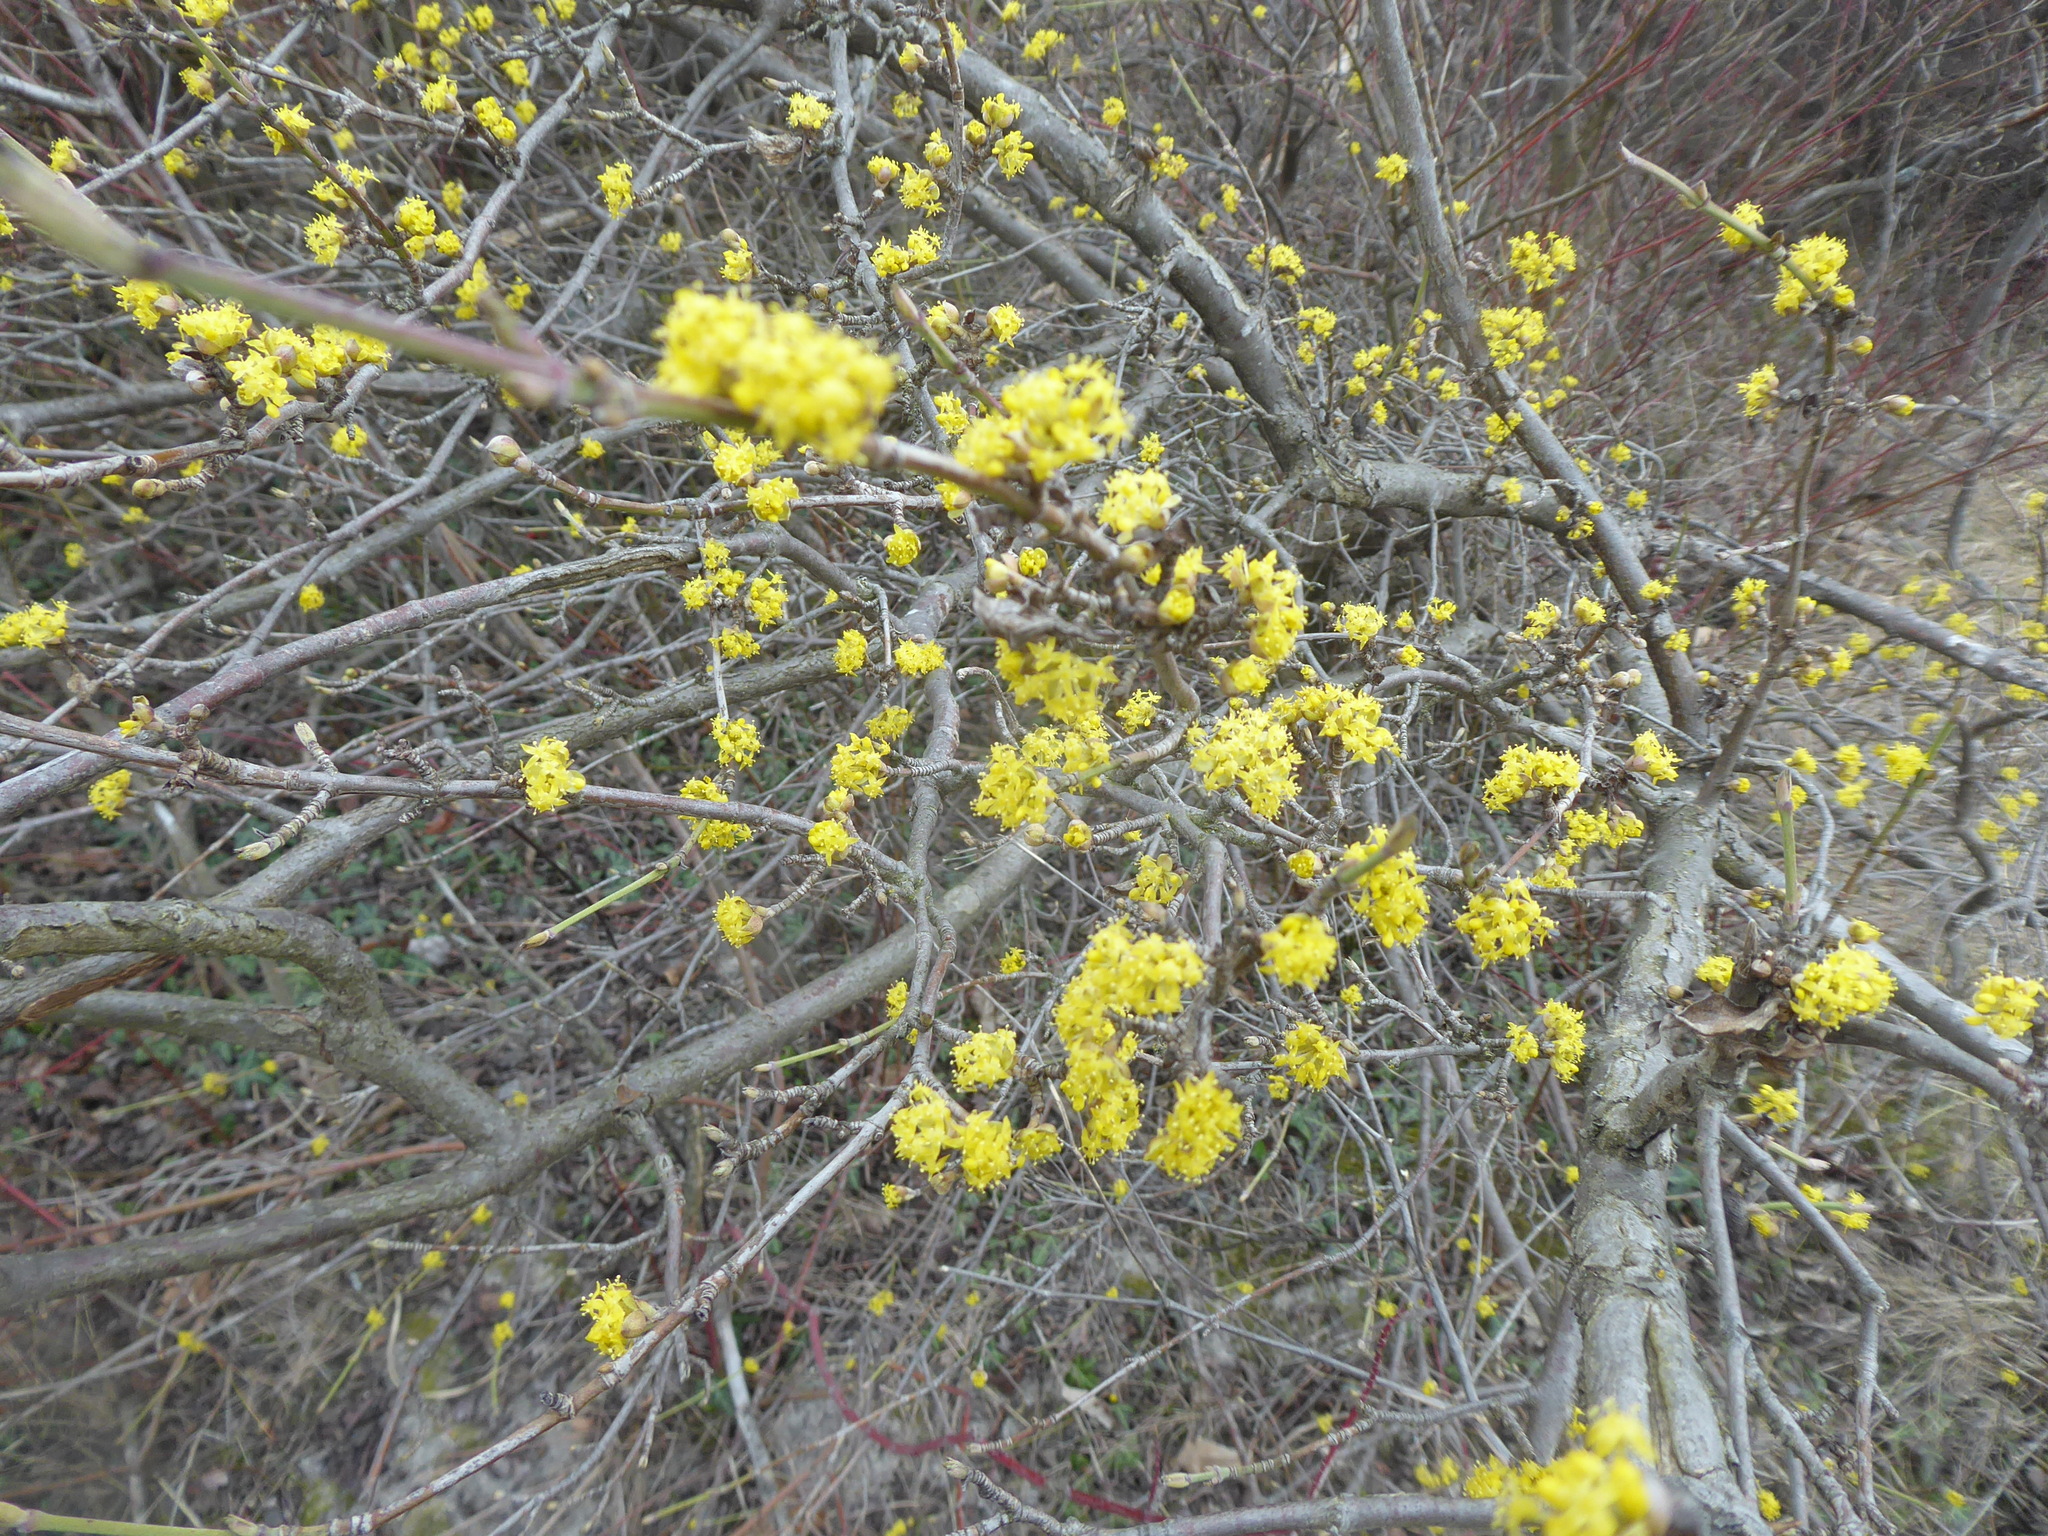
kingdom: Plantae
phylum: Tracheophyta
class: Magnoliopsida
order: Cornales
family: Cornaceae
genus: Cornus
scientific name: Cornus mas
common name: Cornelian-cherry
